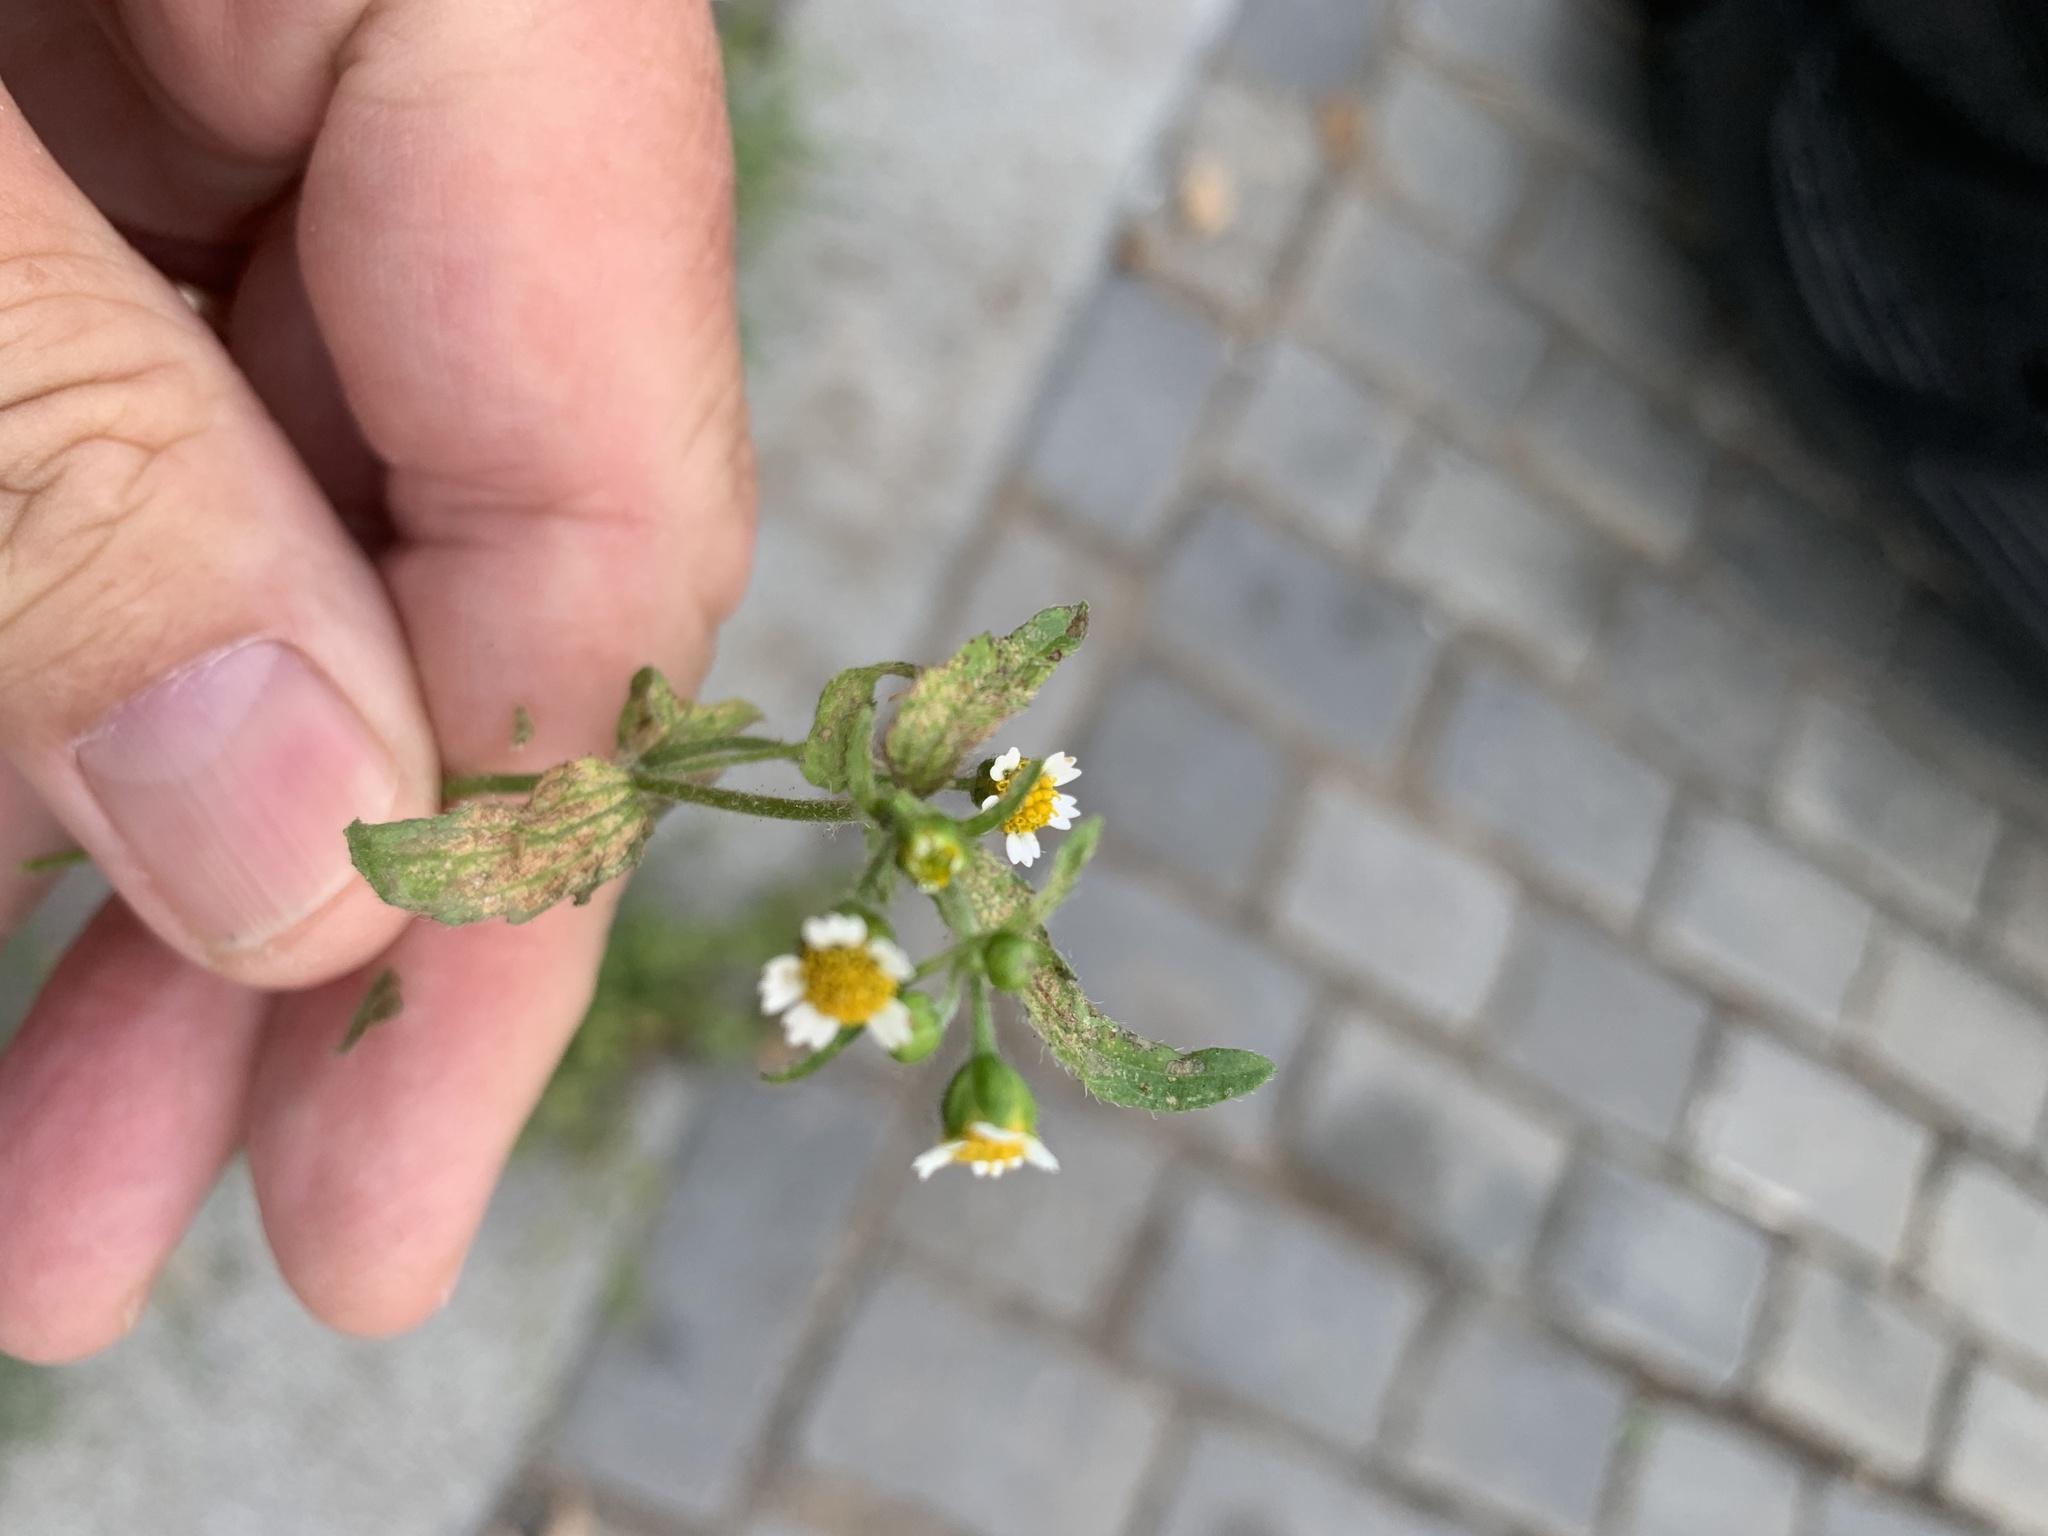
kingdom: Plantae
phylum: Tracheophyta
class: Magnoliopsida
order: Asterales
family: Asteraceae
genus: Galinsoga
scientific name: Galinsoga quadriradiata
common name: Shaggy soldier
